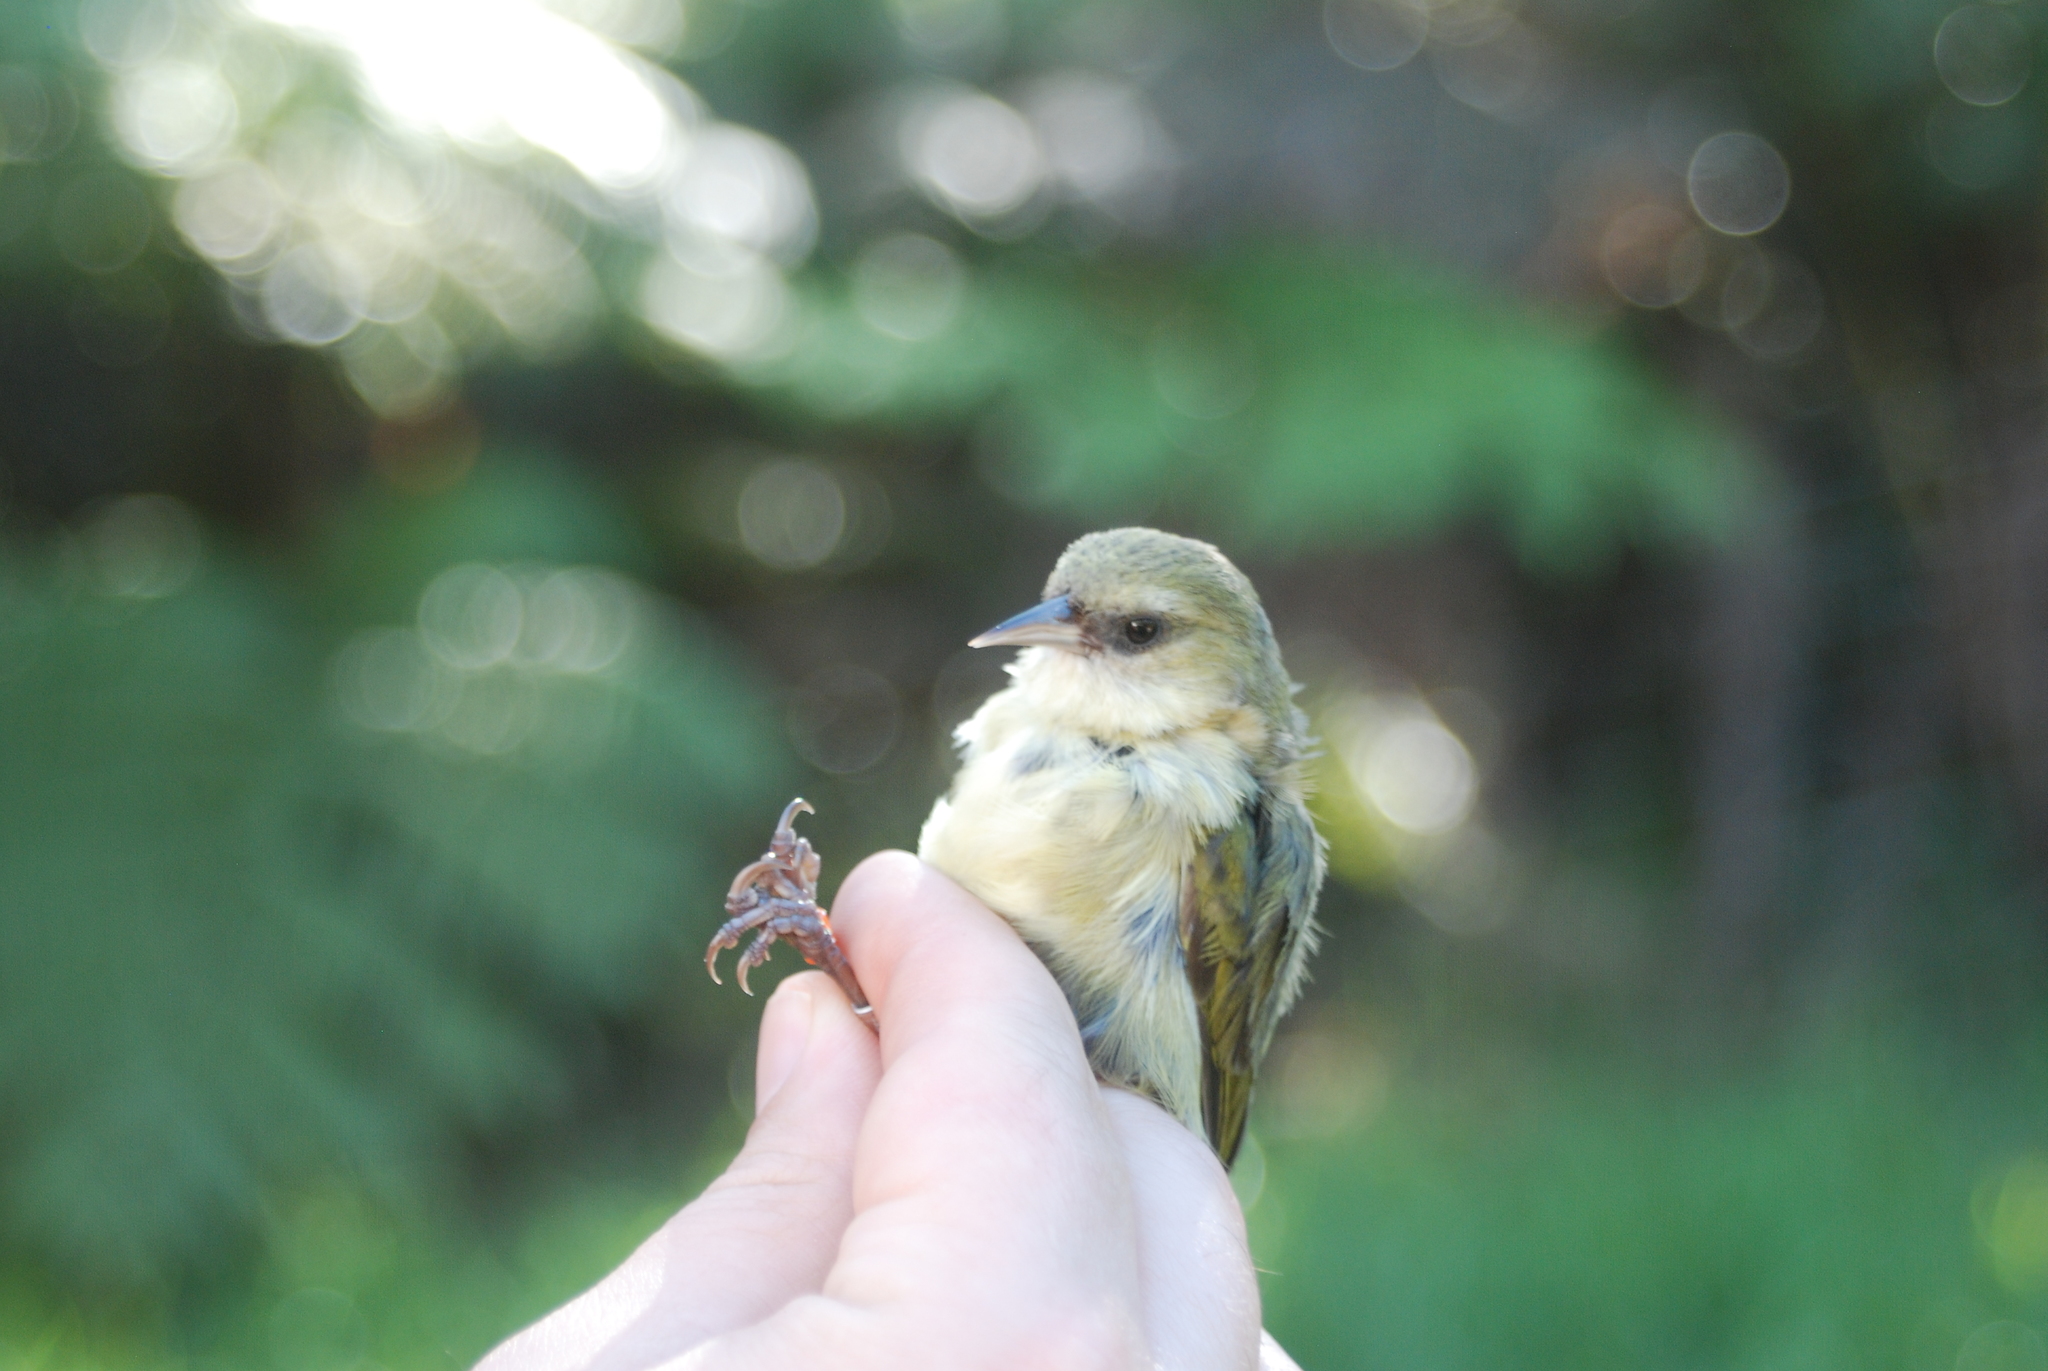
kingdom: Animalia
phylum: Chordata
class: Aves
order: Passeriformes
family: Fringillidae
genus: Loxops
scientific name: Loxops mana
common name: Hawaii creeper
